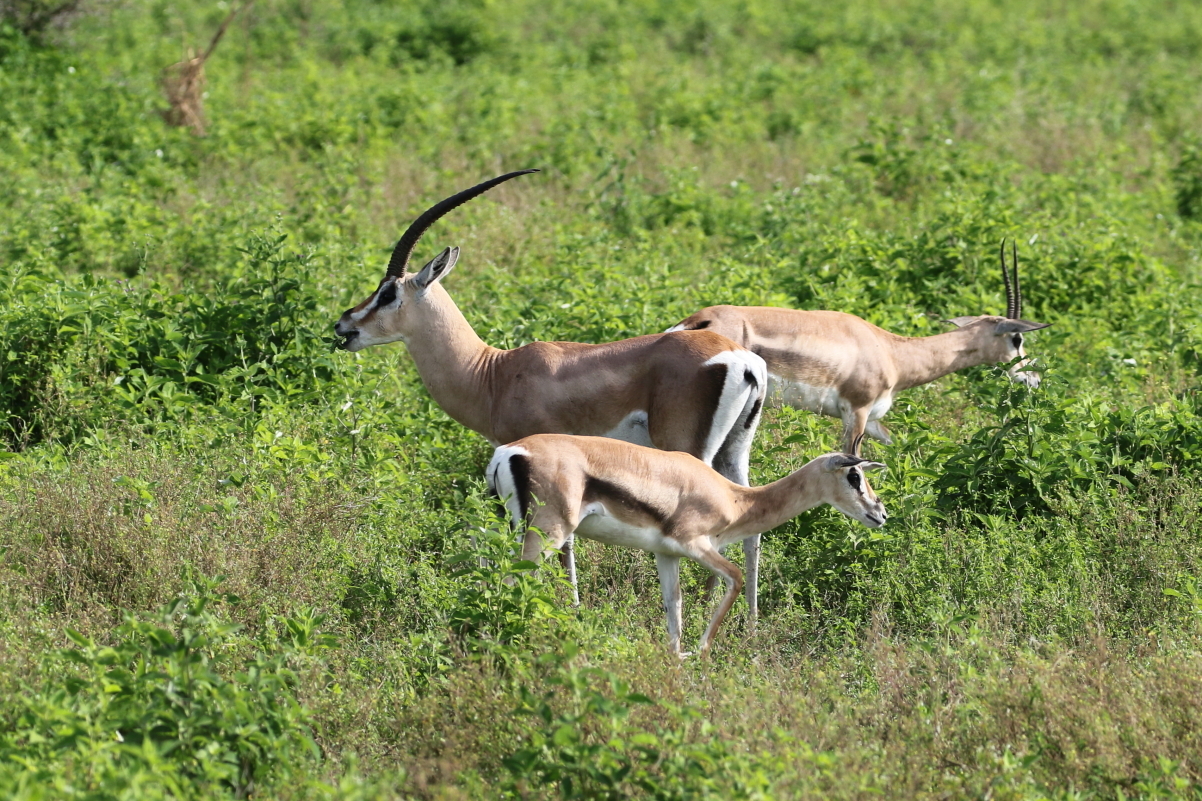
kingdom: Animalia
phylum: Chordata
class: Mammalia
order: Artiodactyla
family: Bovidae
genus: Nanger
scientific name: Nanger granti
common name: Grant's gazelle
